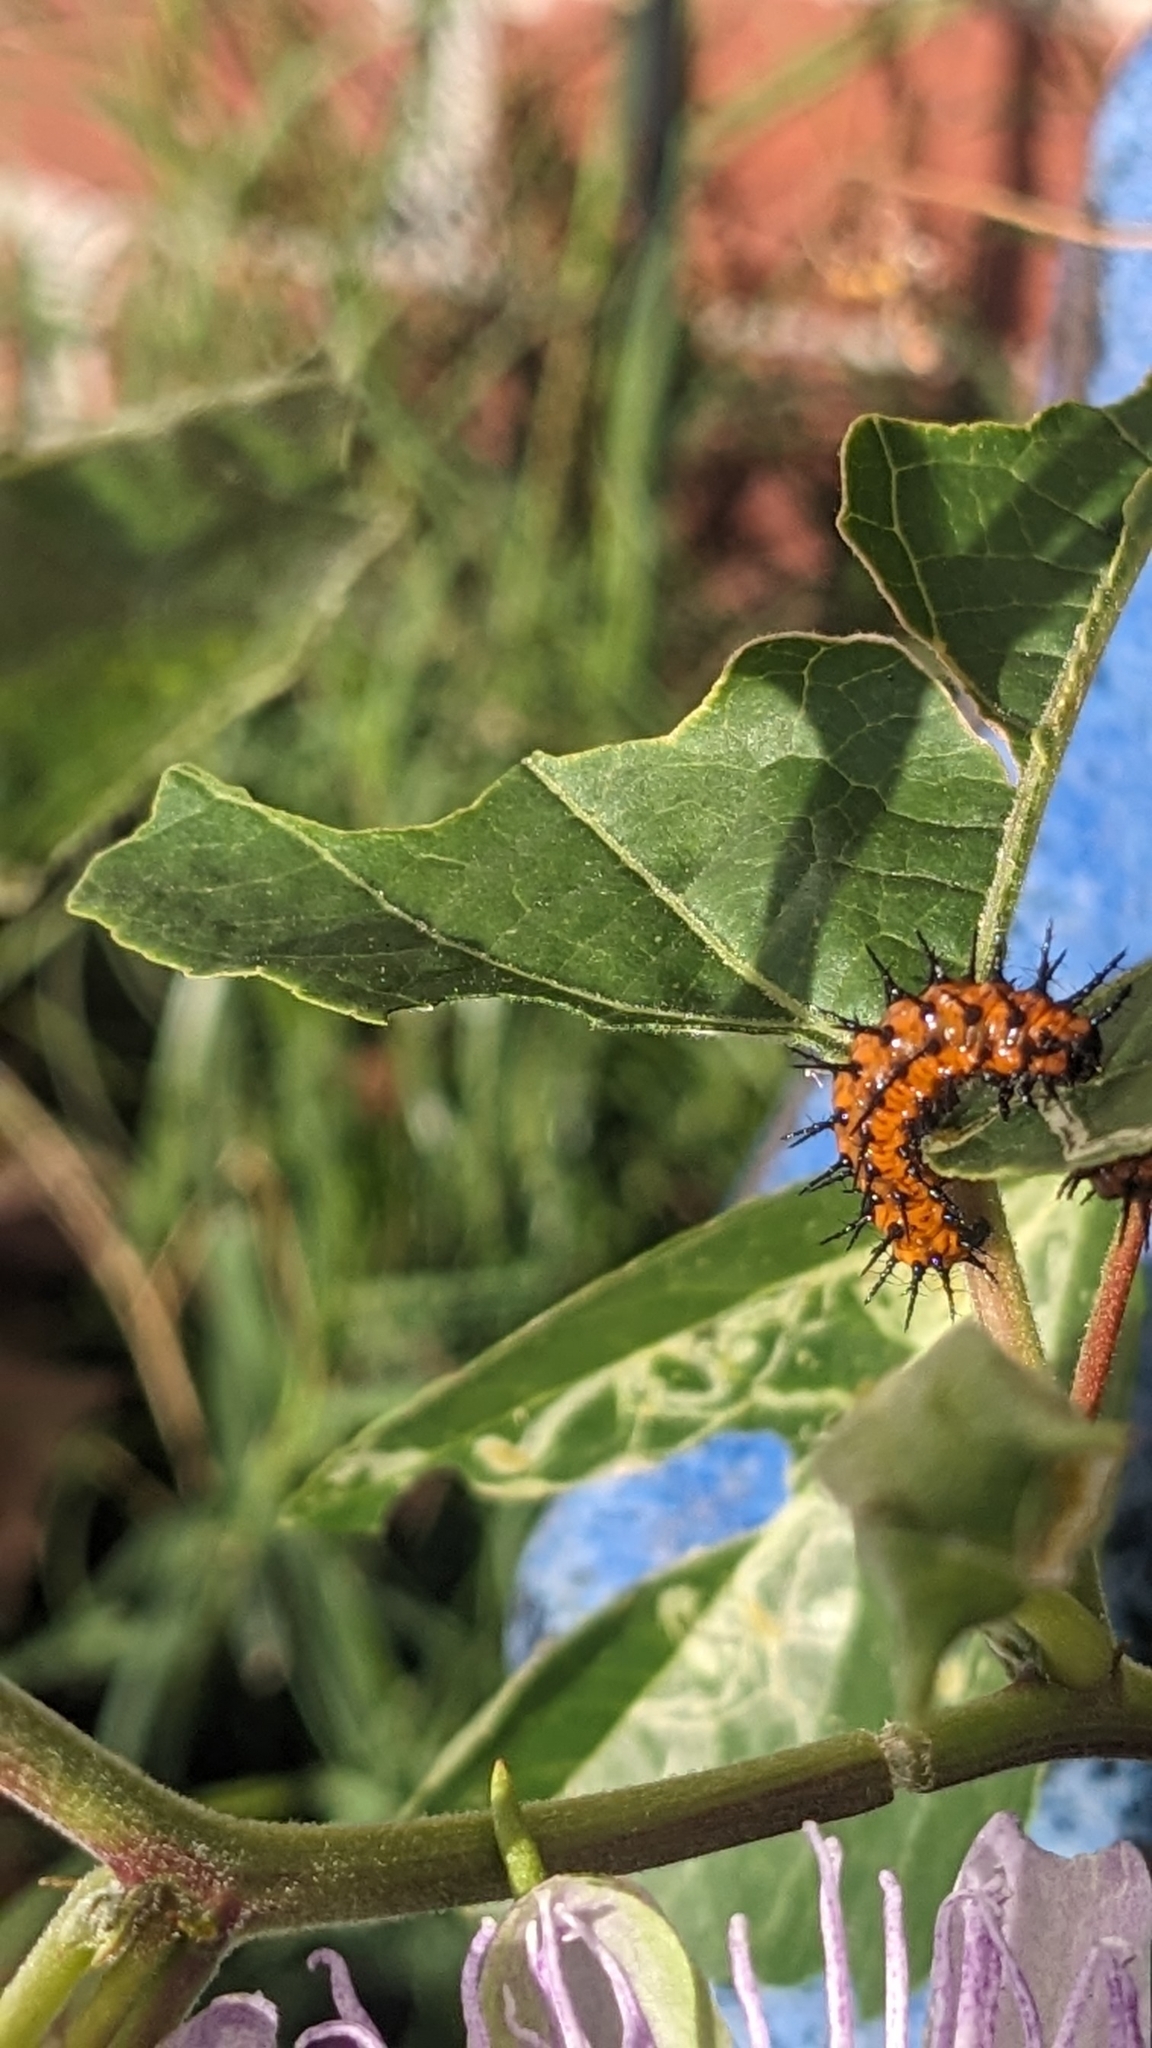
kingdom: Animalia
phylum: Arthropoda
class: Insecta
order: Lepidoptera
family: Nymphalidae
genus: Dione
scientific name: Dione vanillae
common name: Gulf fritillary
